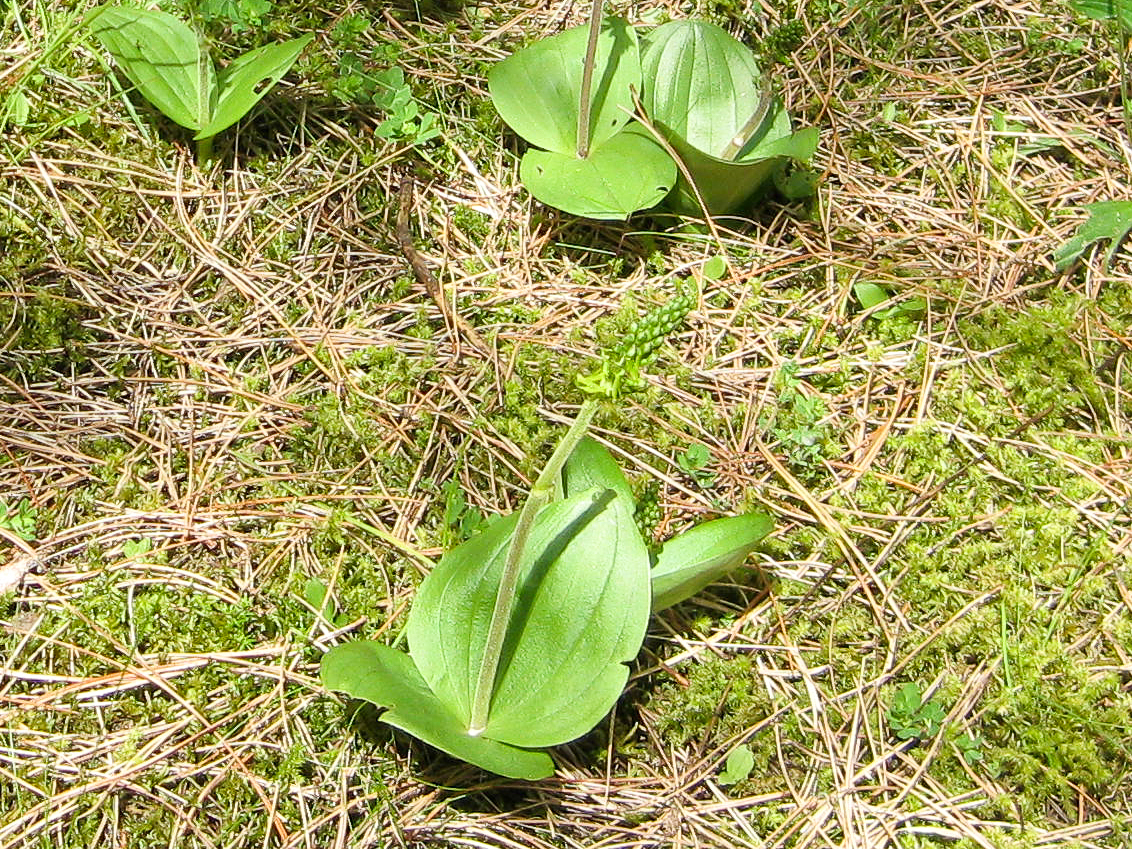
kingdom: Plantae
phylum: Tracheophyta
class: Liliopsida
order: Asparagales
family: Orchidaceae
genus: Neottia
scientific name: Neottia ovata
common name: Common twayblade
